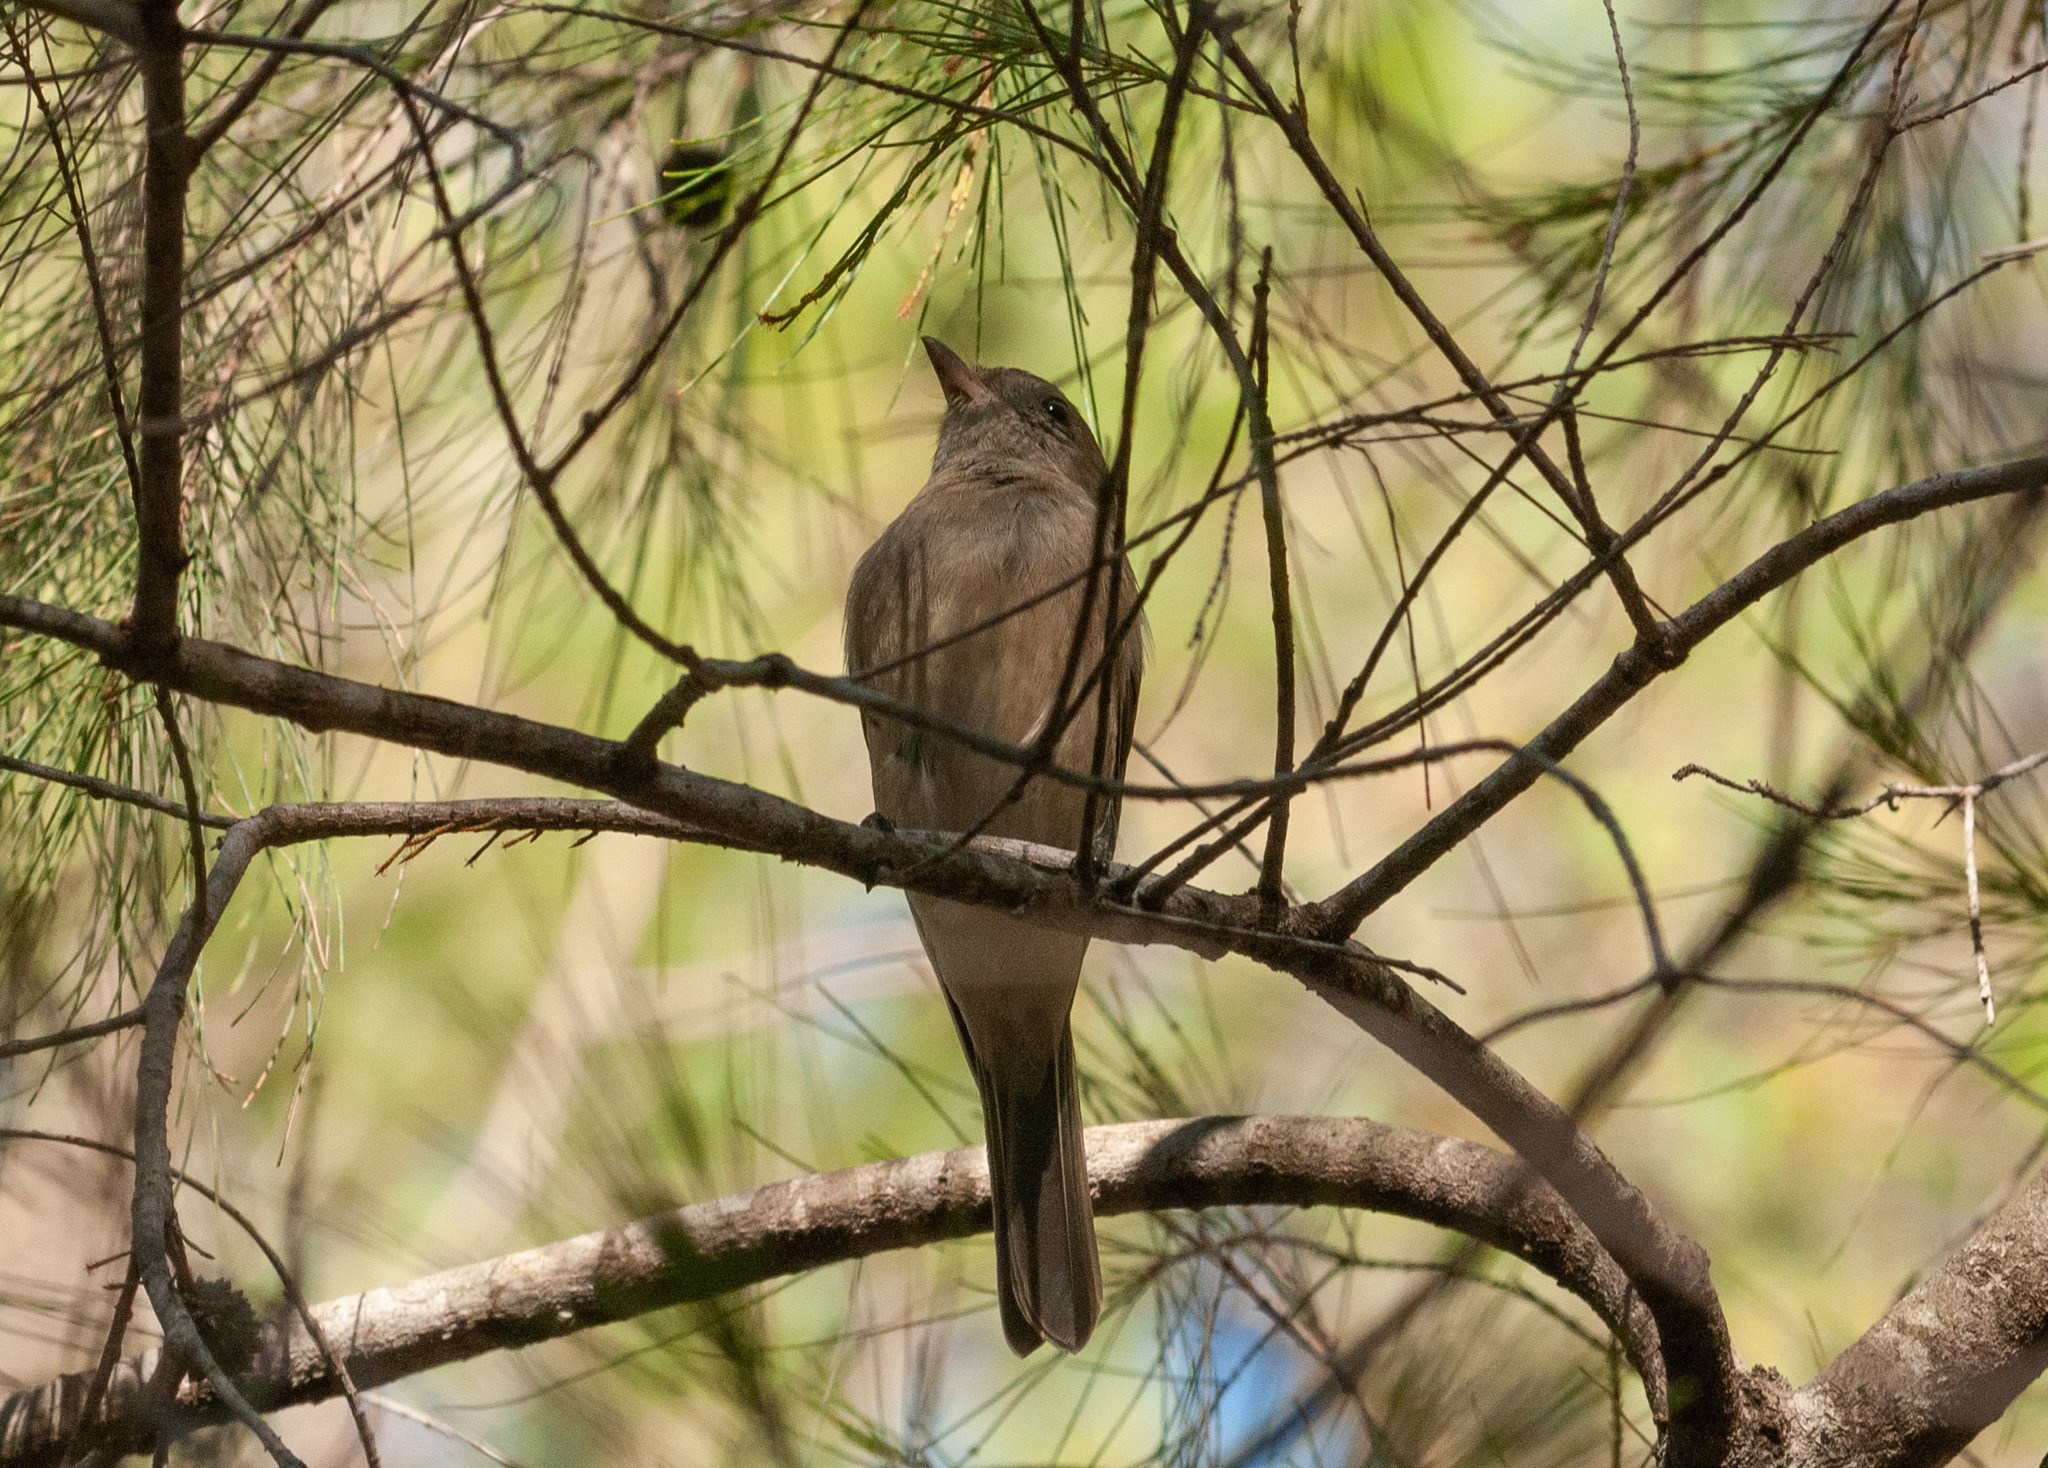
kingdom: Animalia
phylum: Chordata
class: Aves
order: Passeriformes
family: Pachycephalidae
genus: Colluricincla
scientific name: Colluricincla rufogaster
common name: Rufous shrikethrush
